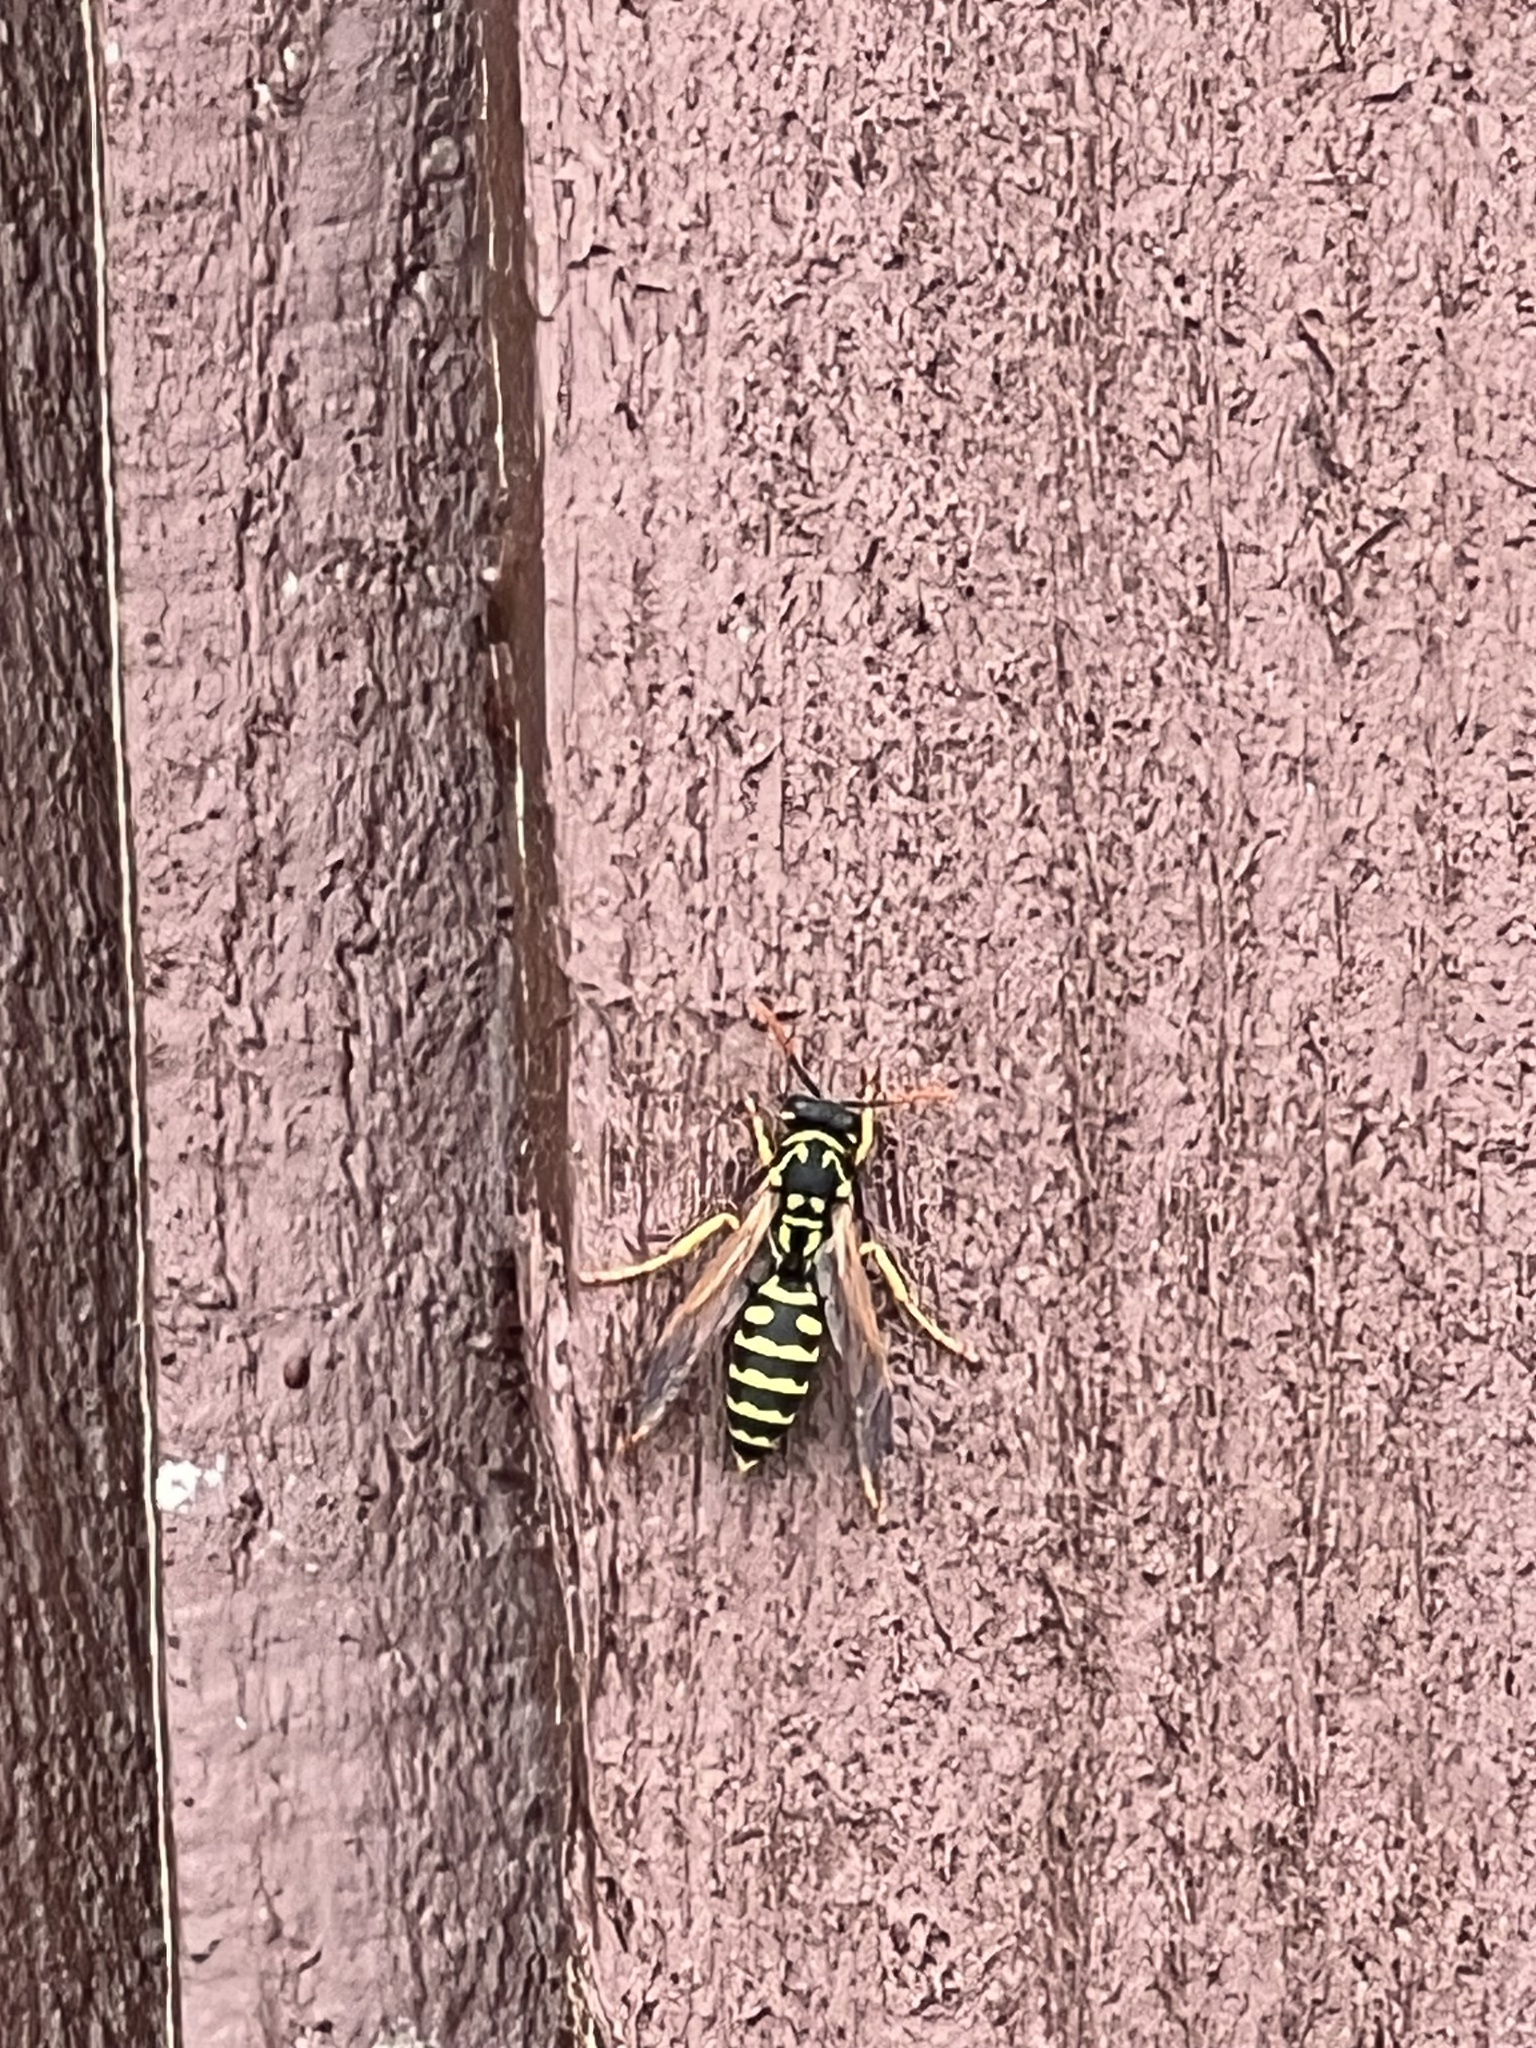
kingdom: Animalia
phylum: Arthropoda
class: Insecta
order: Hymenoptera
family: Eumenidae
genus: Polistes
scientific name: Polistes dominula
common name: Paper wasp
